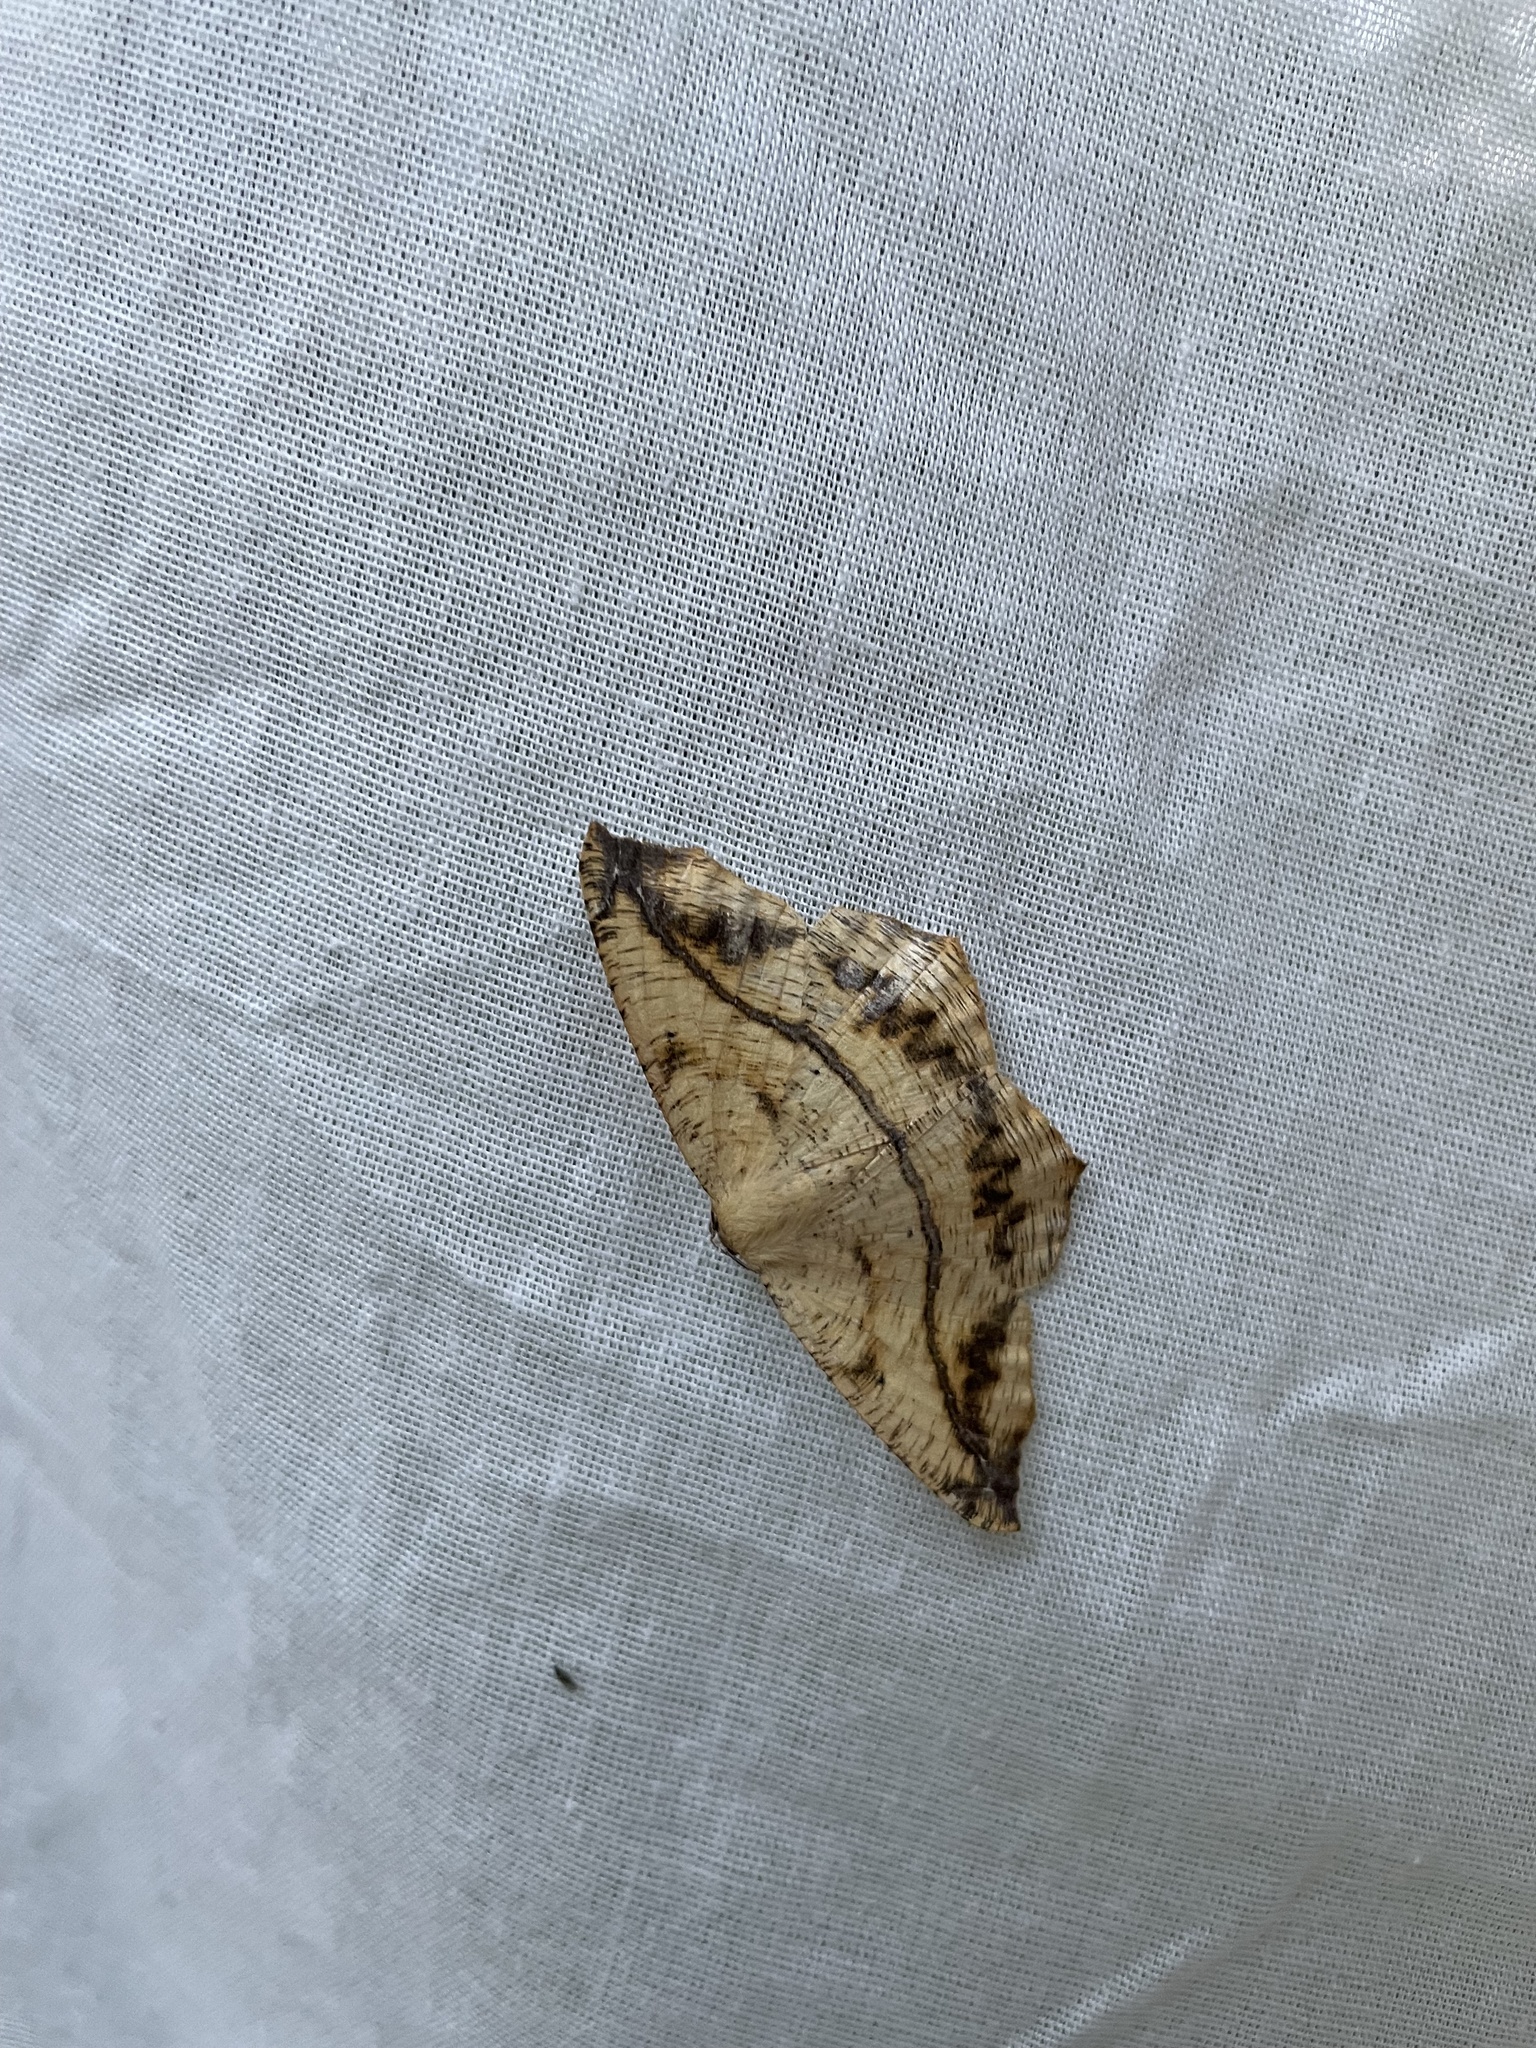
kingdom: Animalia
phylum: Arthropoda
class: Insecta
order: Lepidoptera
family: Geometridae
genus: Prochoerodes
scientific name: Prochoerodes lineola
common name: Large maple spanworm
